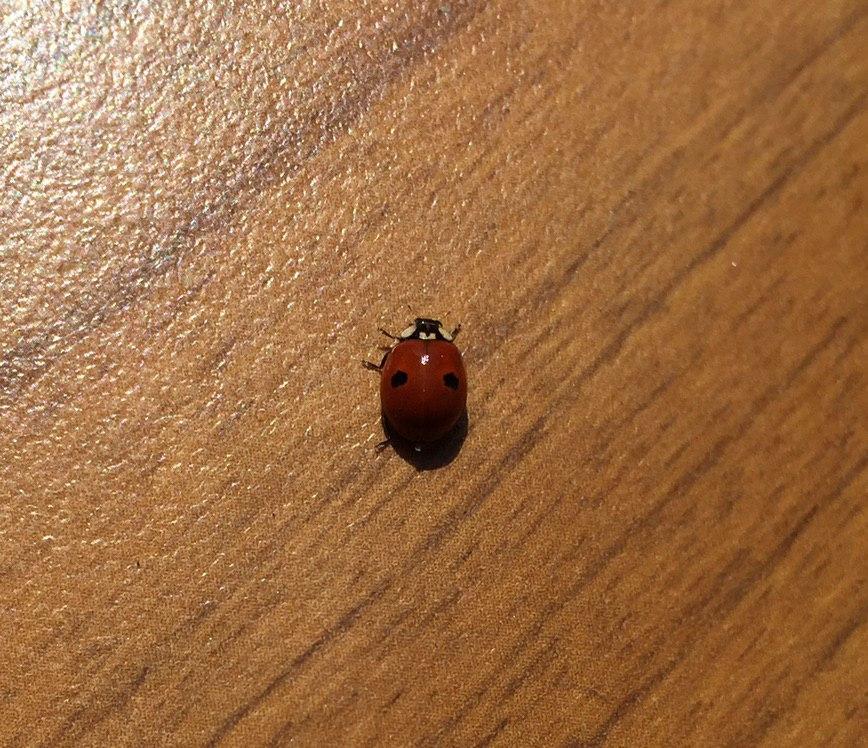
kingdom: Animalia
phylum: Arthropoda
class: Insecta
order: Coleoptera
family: Coccinellidae
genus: Adalia
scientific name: Adalia bipunctata
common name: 2-spot ladybird
